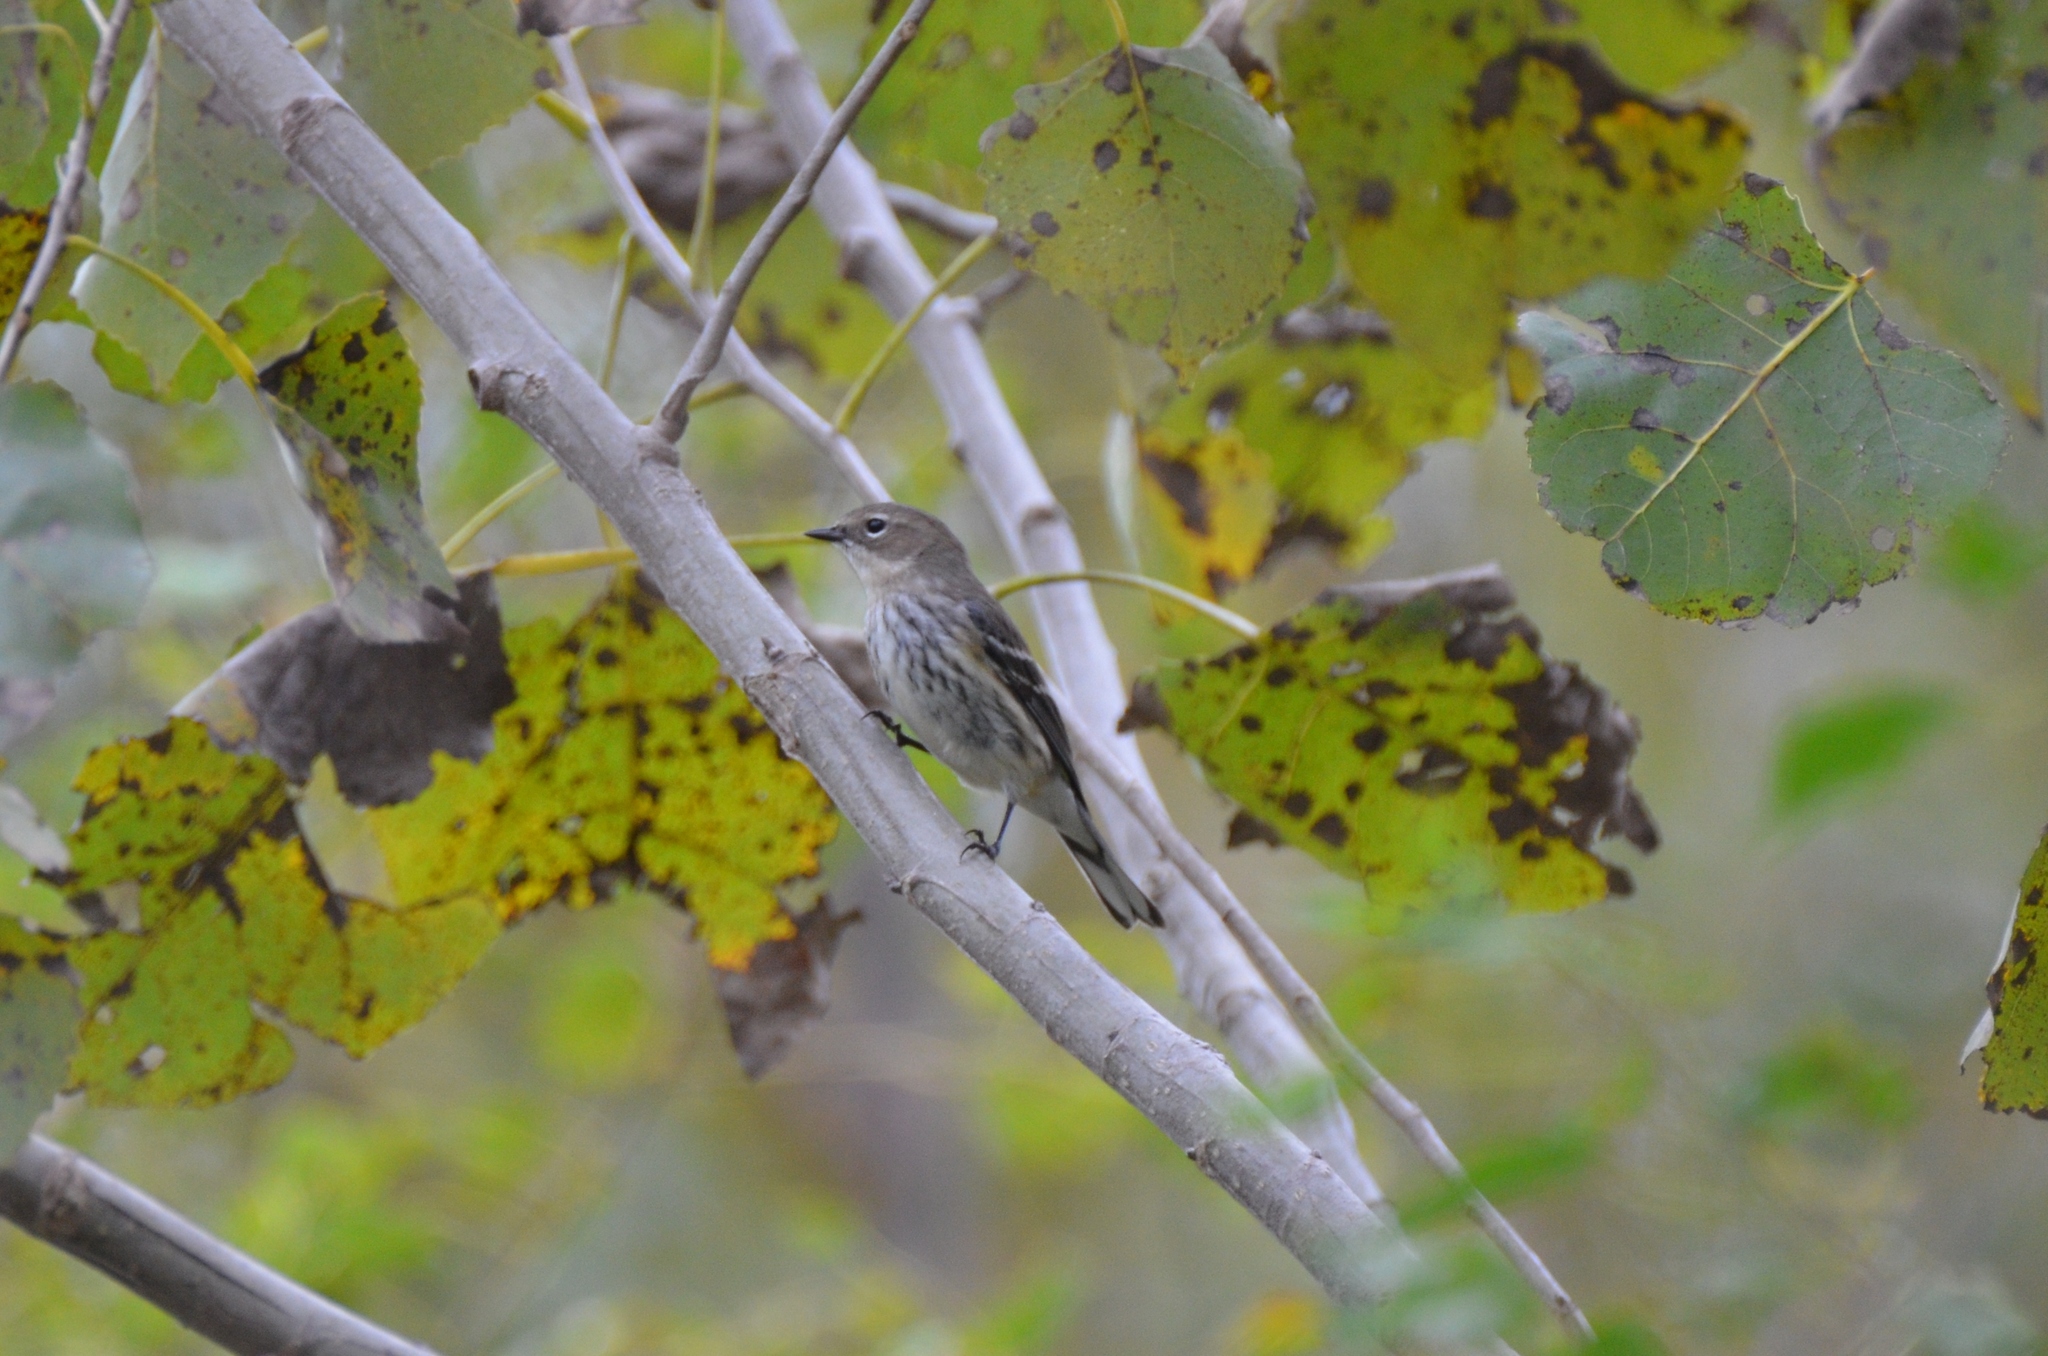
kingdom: Animalia
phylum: Chordata
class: Aves
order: Passeriformes
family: Parulidae
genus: Setophaga
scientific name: Setophaga coronata
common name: Myrtle warbler
